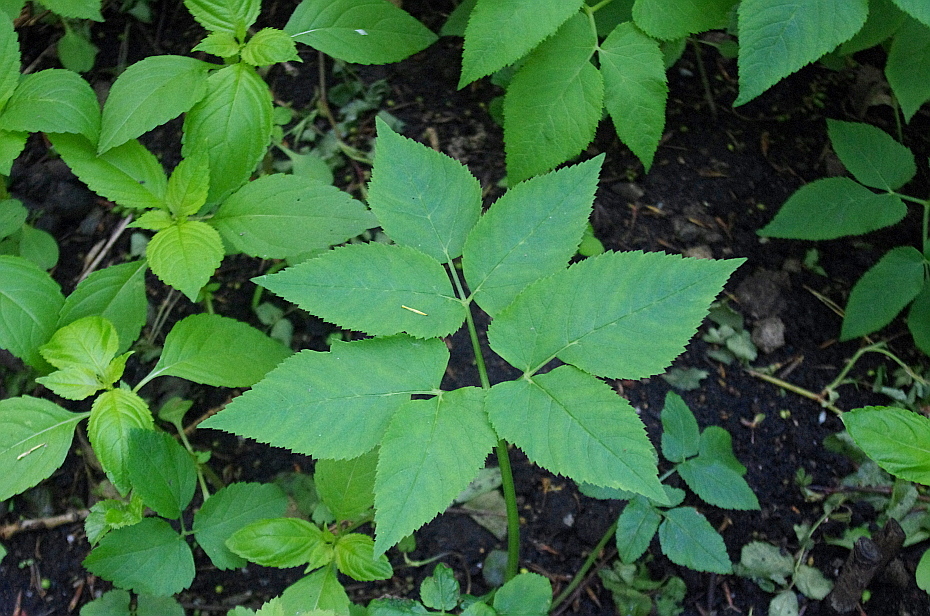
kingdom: Plantae
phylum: Tracheophyta
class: Magnoliopsida
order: Apiales
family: Apiaceae
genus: Aegopodium
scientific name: Aegopodium podagraria
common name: Ground-elder
